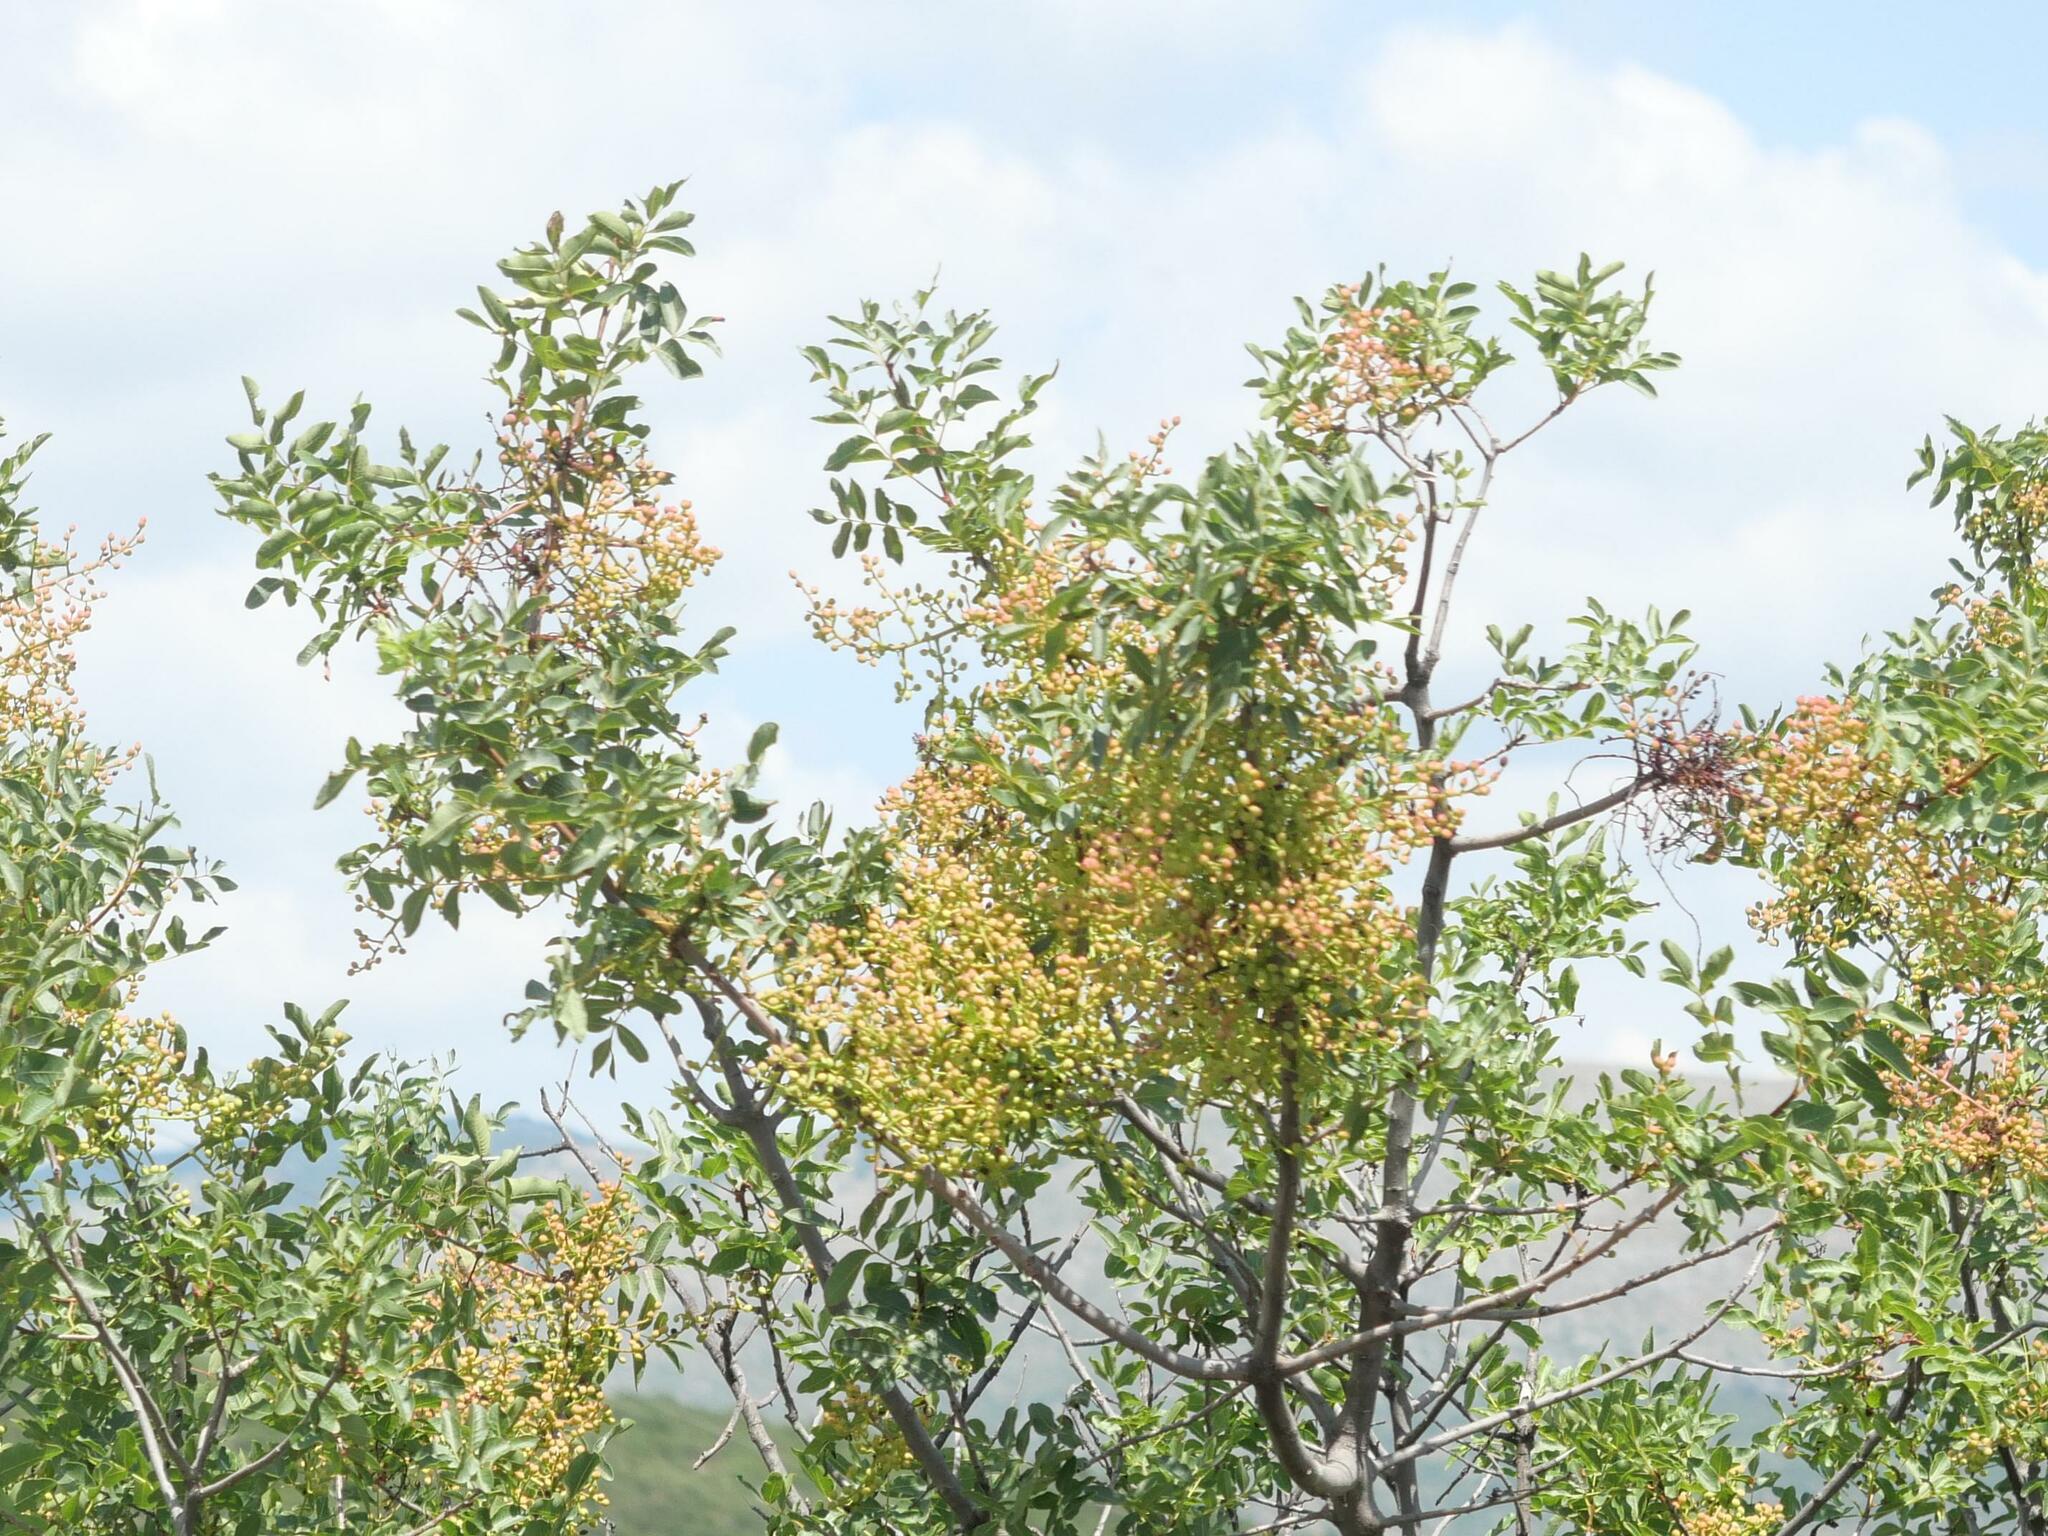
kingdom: Plantae
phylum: Tracheophyta
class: Magnoliopsida
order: Sapindales
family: Anacardiaceae
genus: Pistacia
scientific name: Pistacia terebinthus
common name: Terebinth
